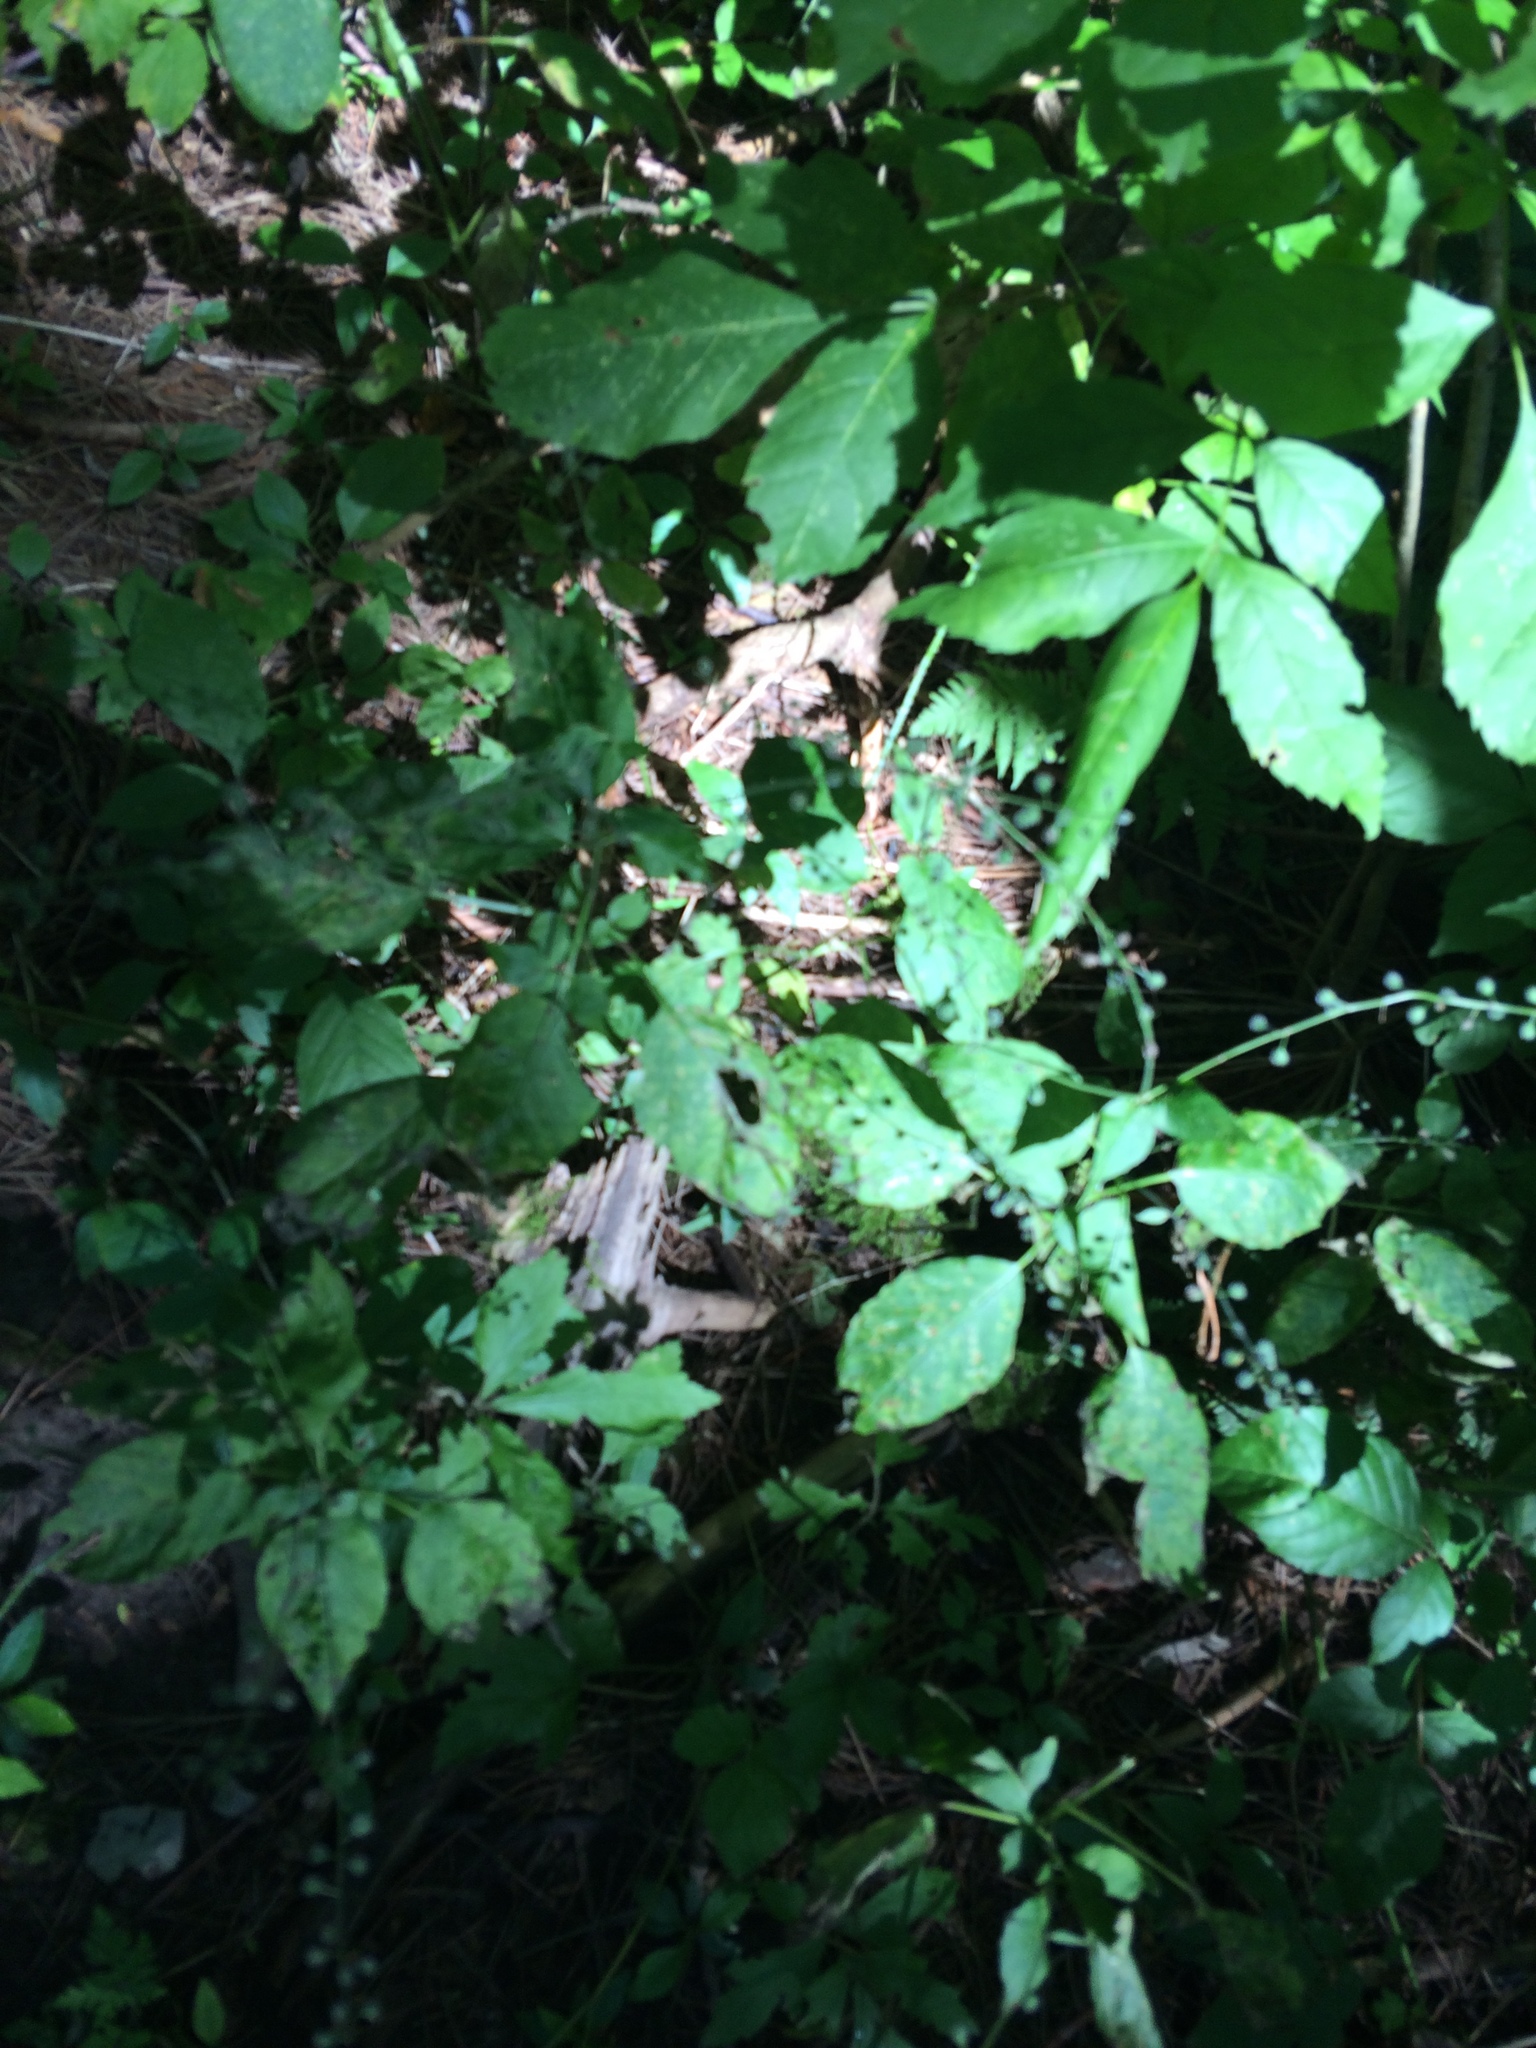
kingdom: Plantae
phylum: Tracheophyta
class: Magnoliopsida
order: Myrtales
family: Onagraceae
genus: Circaea
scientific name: Circaea canadensis
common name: Broad-leaved enchanter's nightshade
